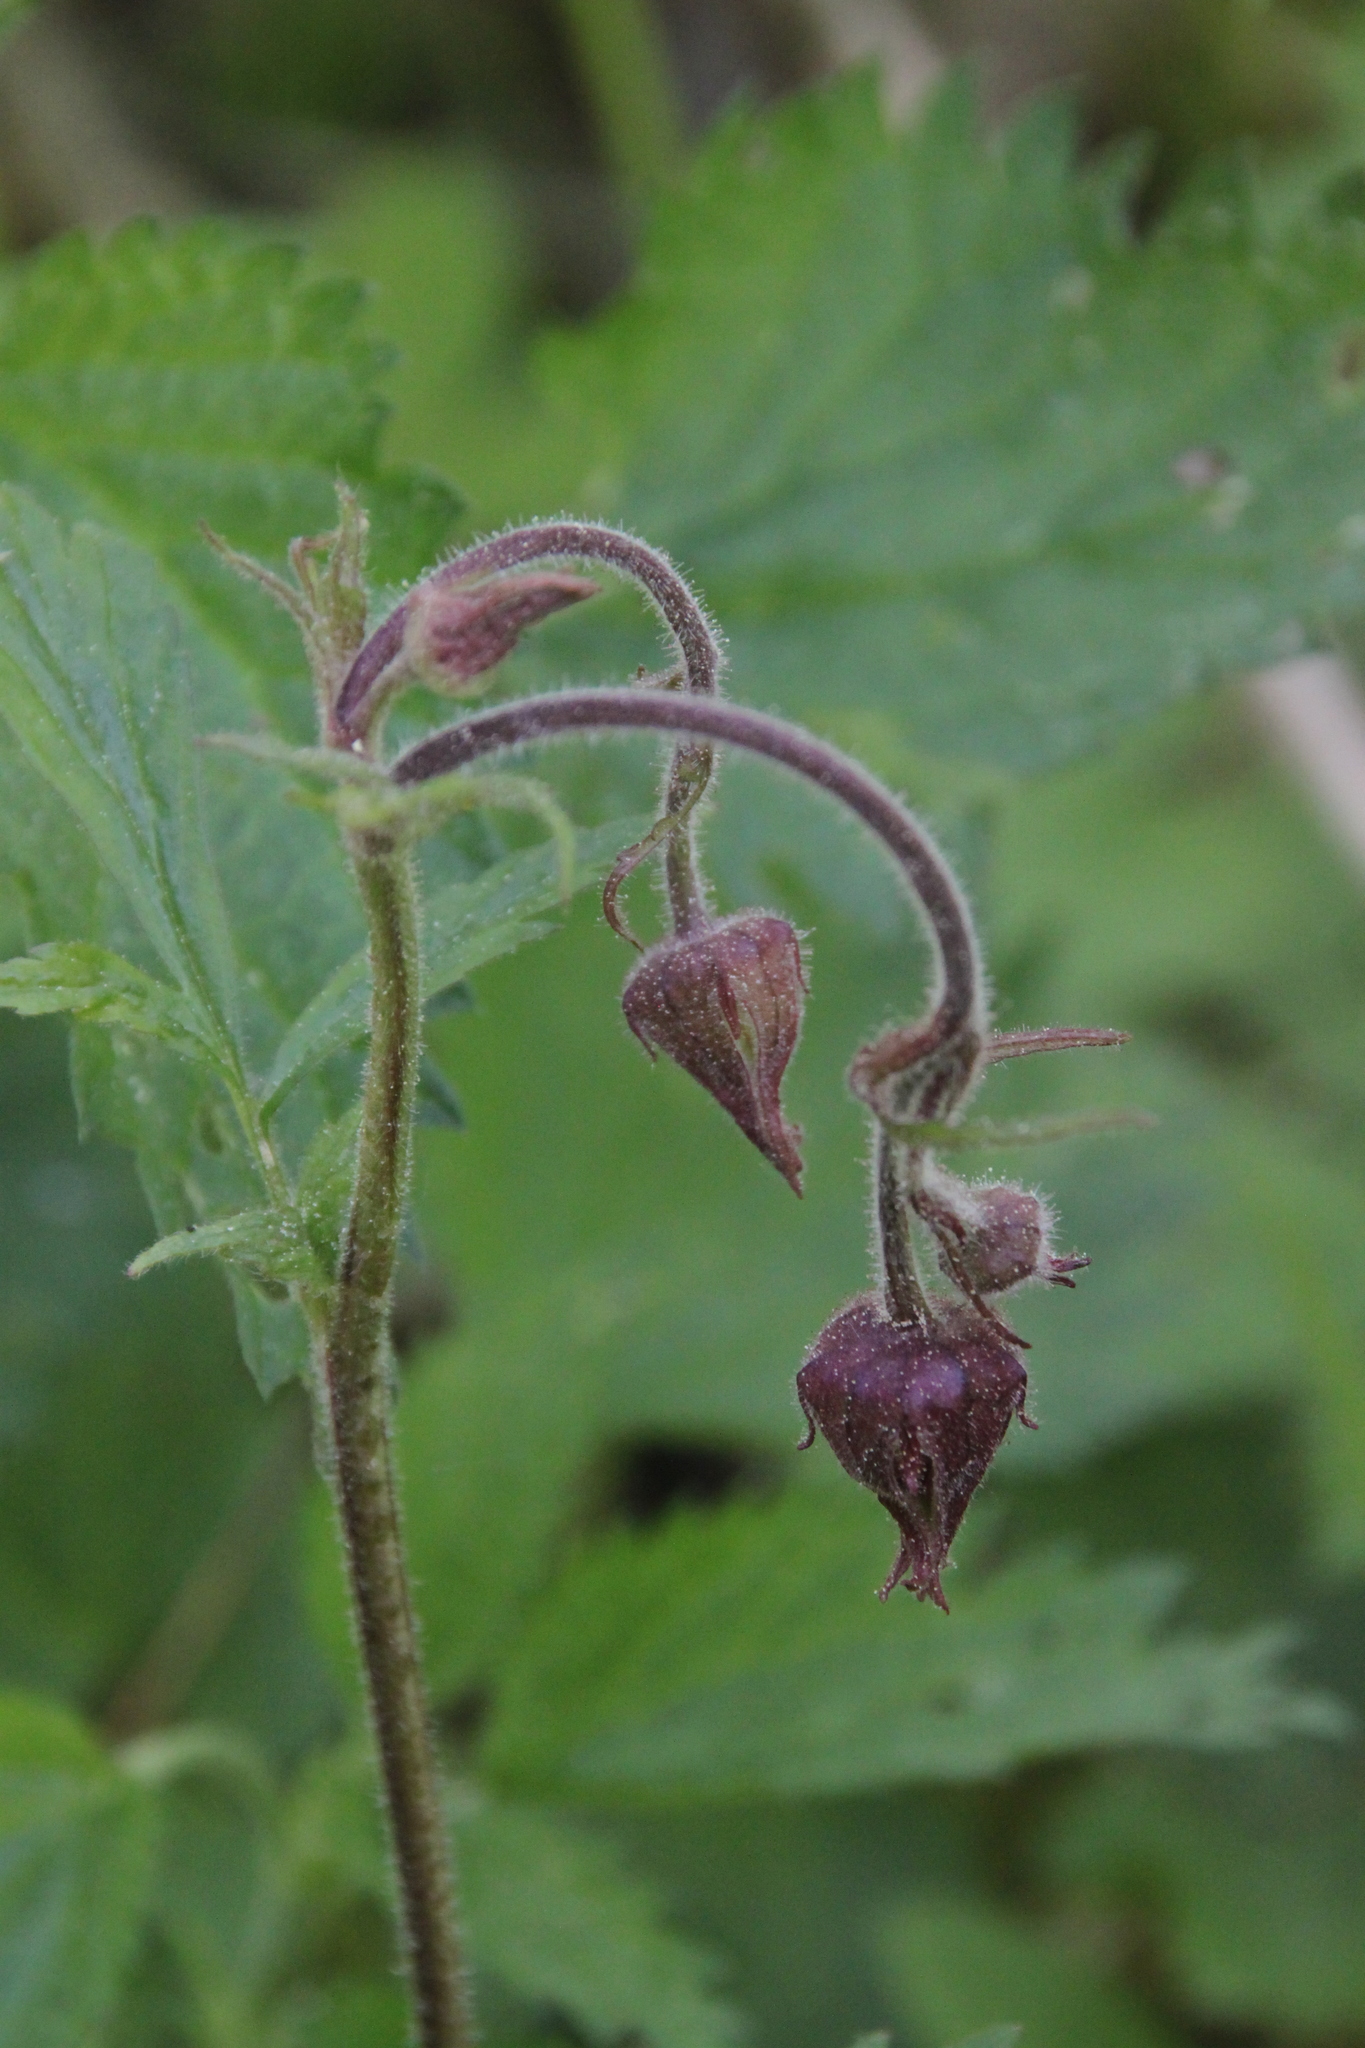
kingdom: Plantae
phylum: Tracheophyta
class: Magnoliopsida
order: Rosales
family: Rosaceae
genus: Geum
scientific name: Geum rivale
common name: Water avens
